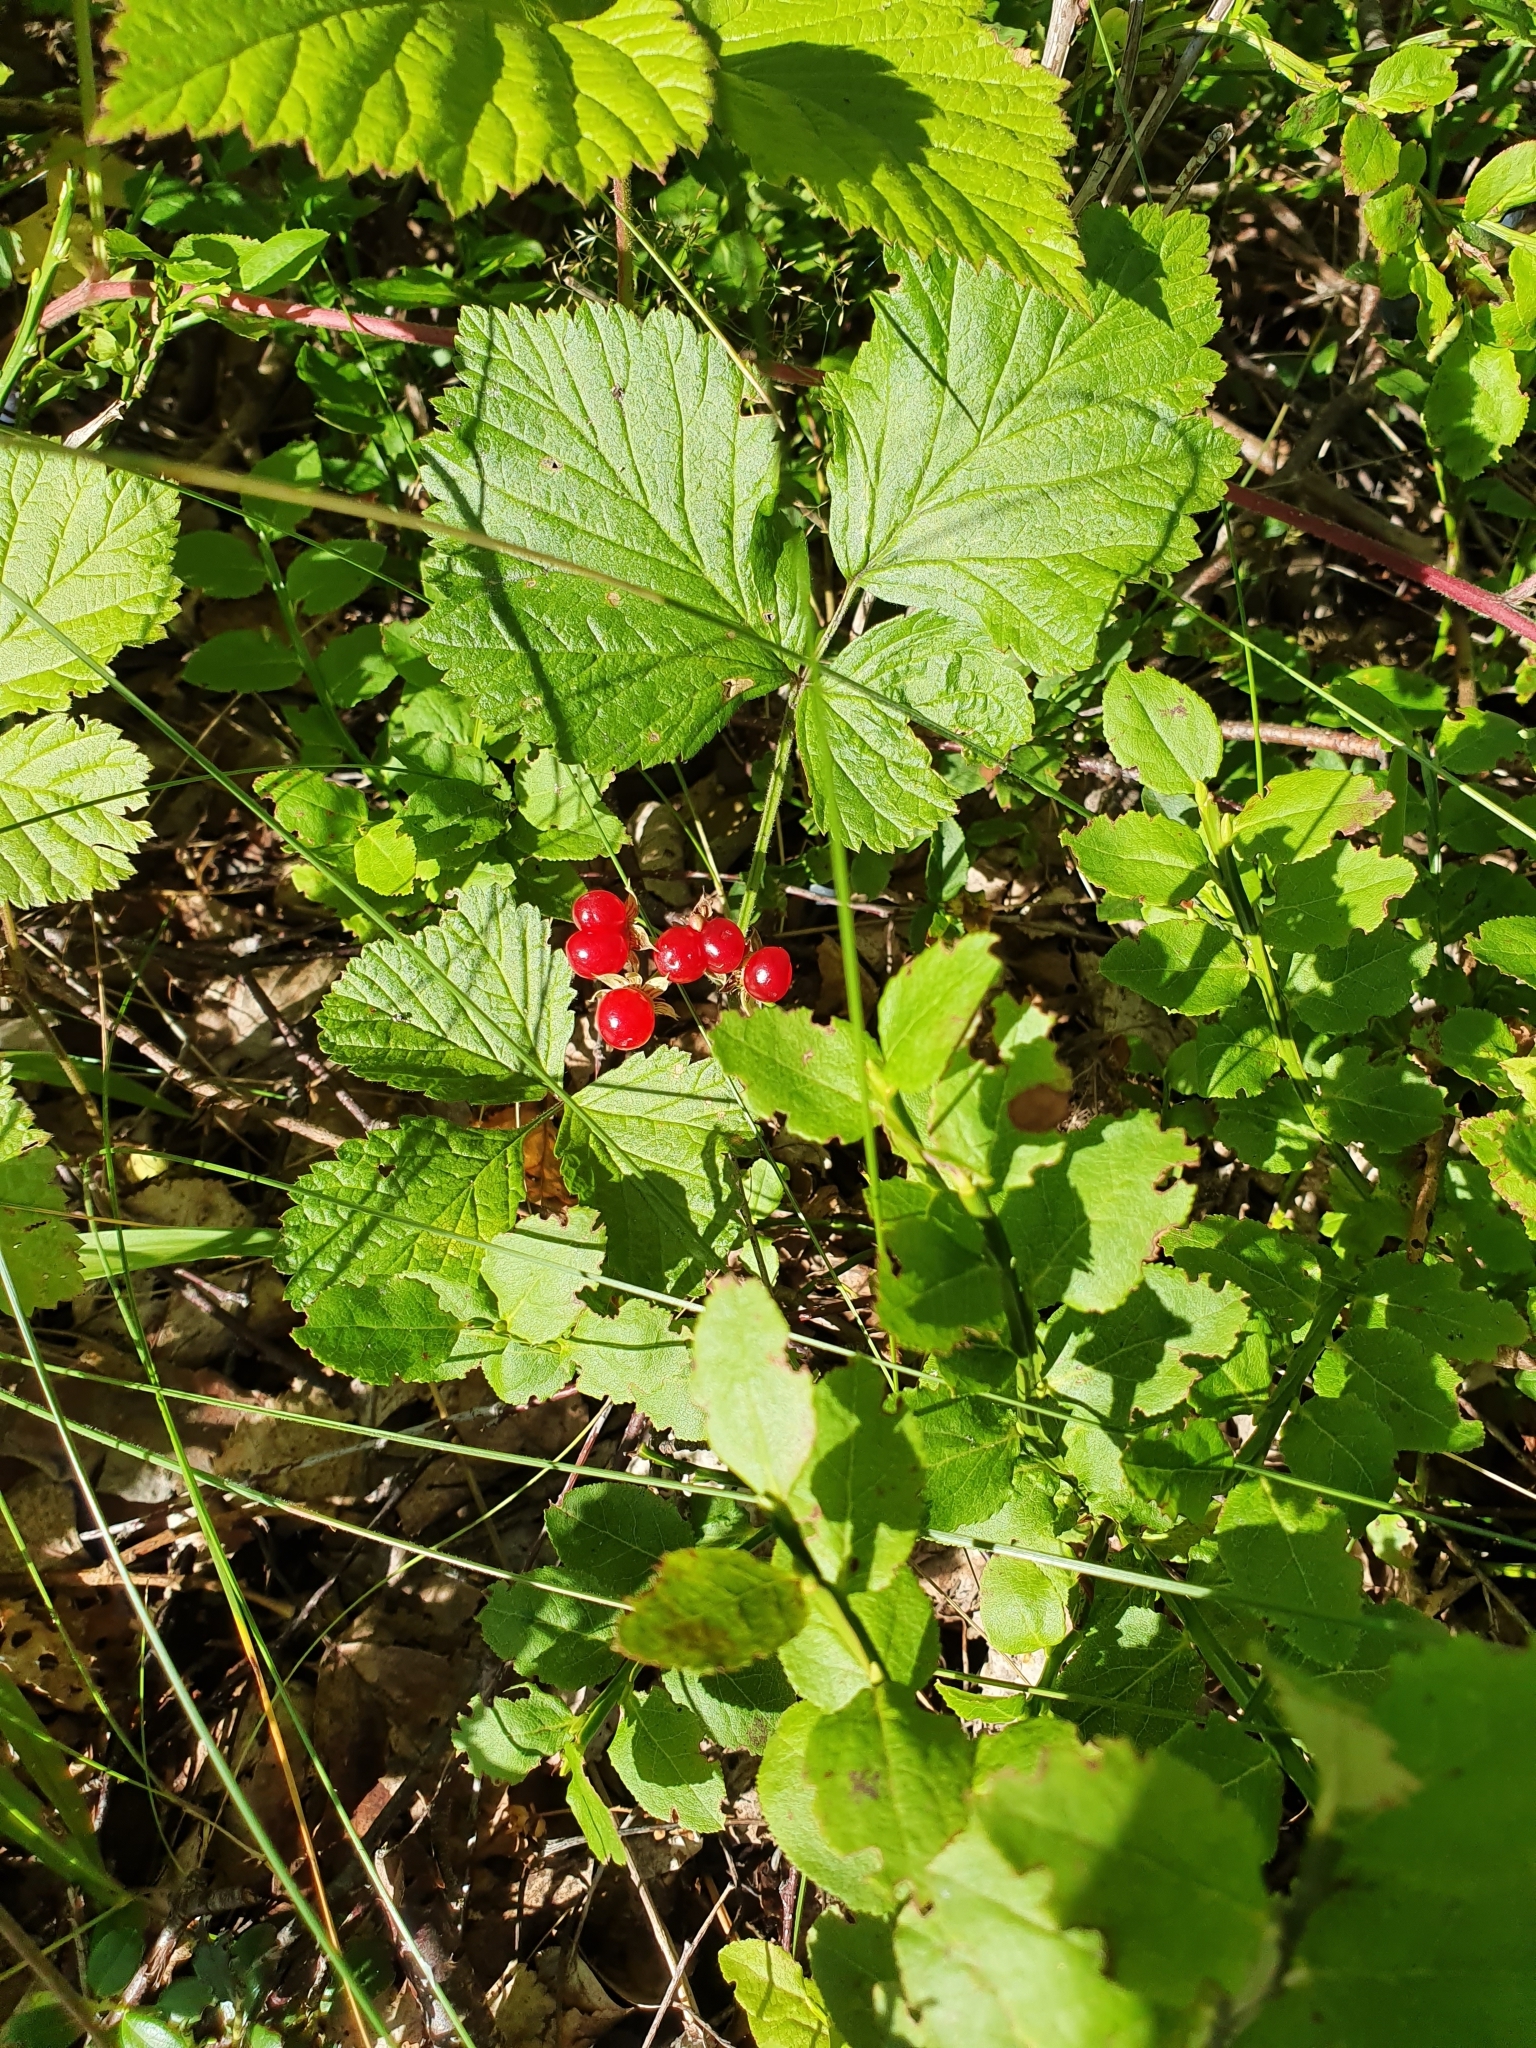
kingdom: Plantae
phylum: Tracheophyta
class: Magnoliopsida
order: Rosales
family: Rosaceae
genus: Rubus
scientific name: Rubus saxatilis
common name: Stone bramble
